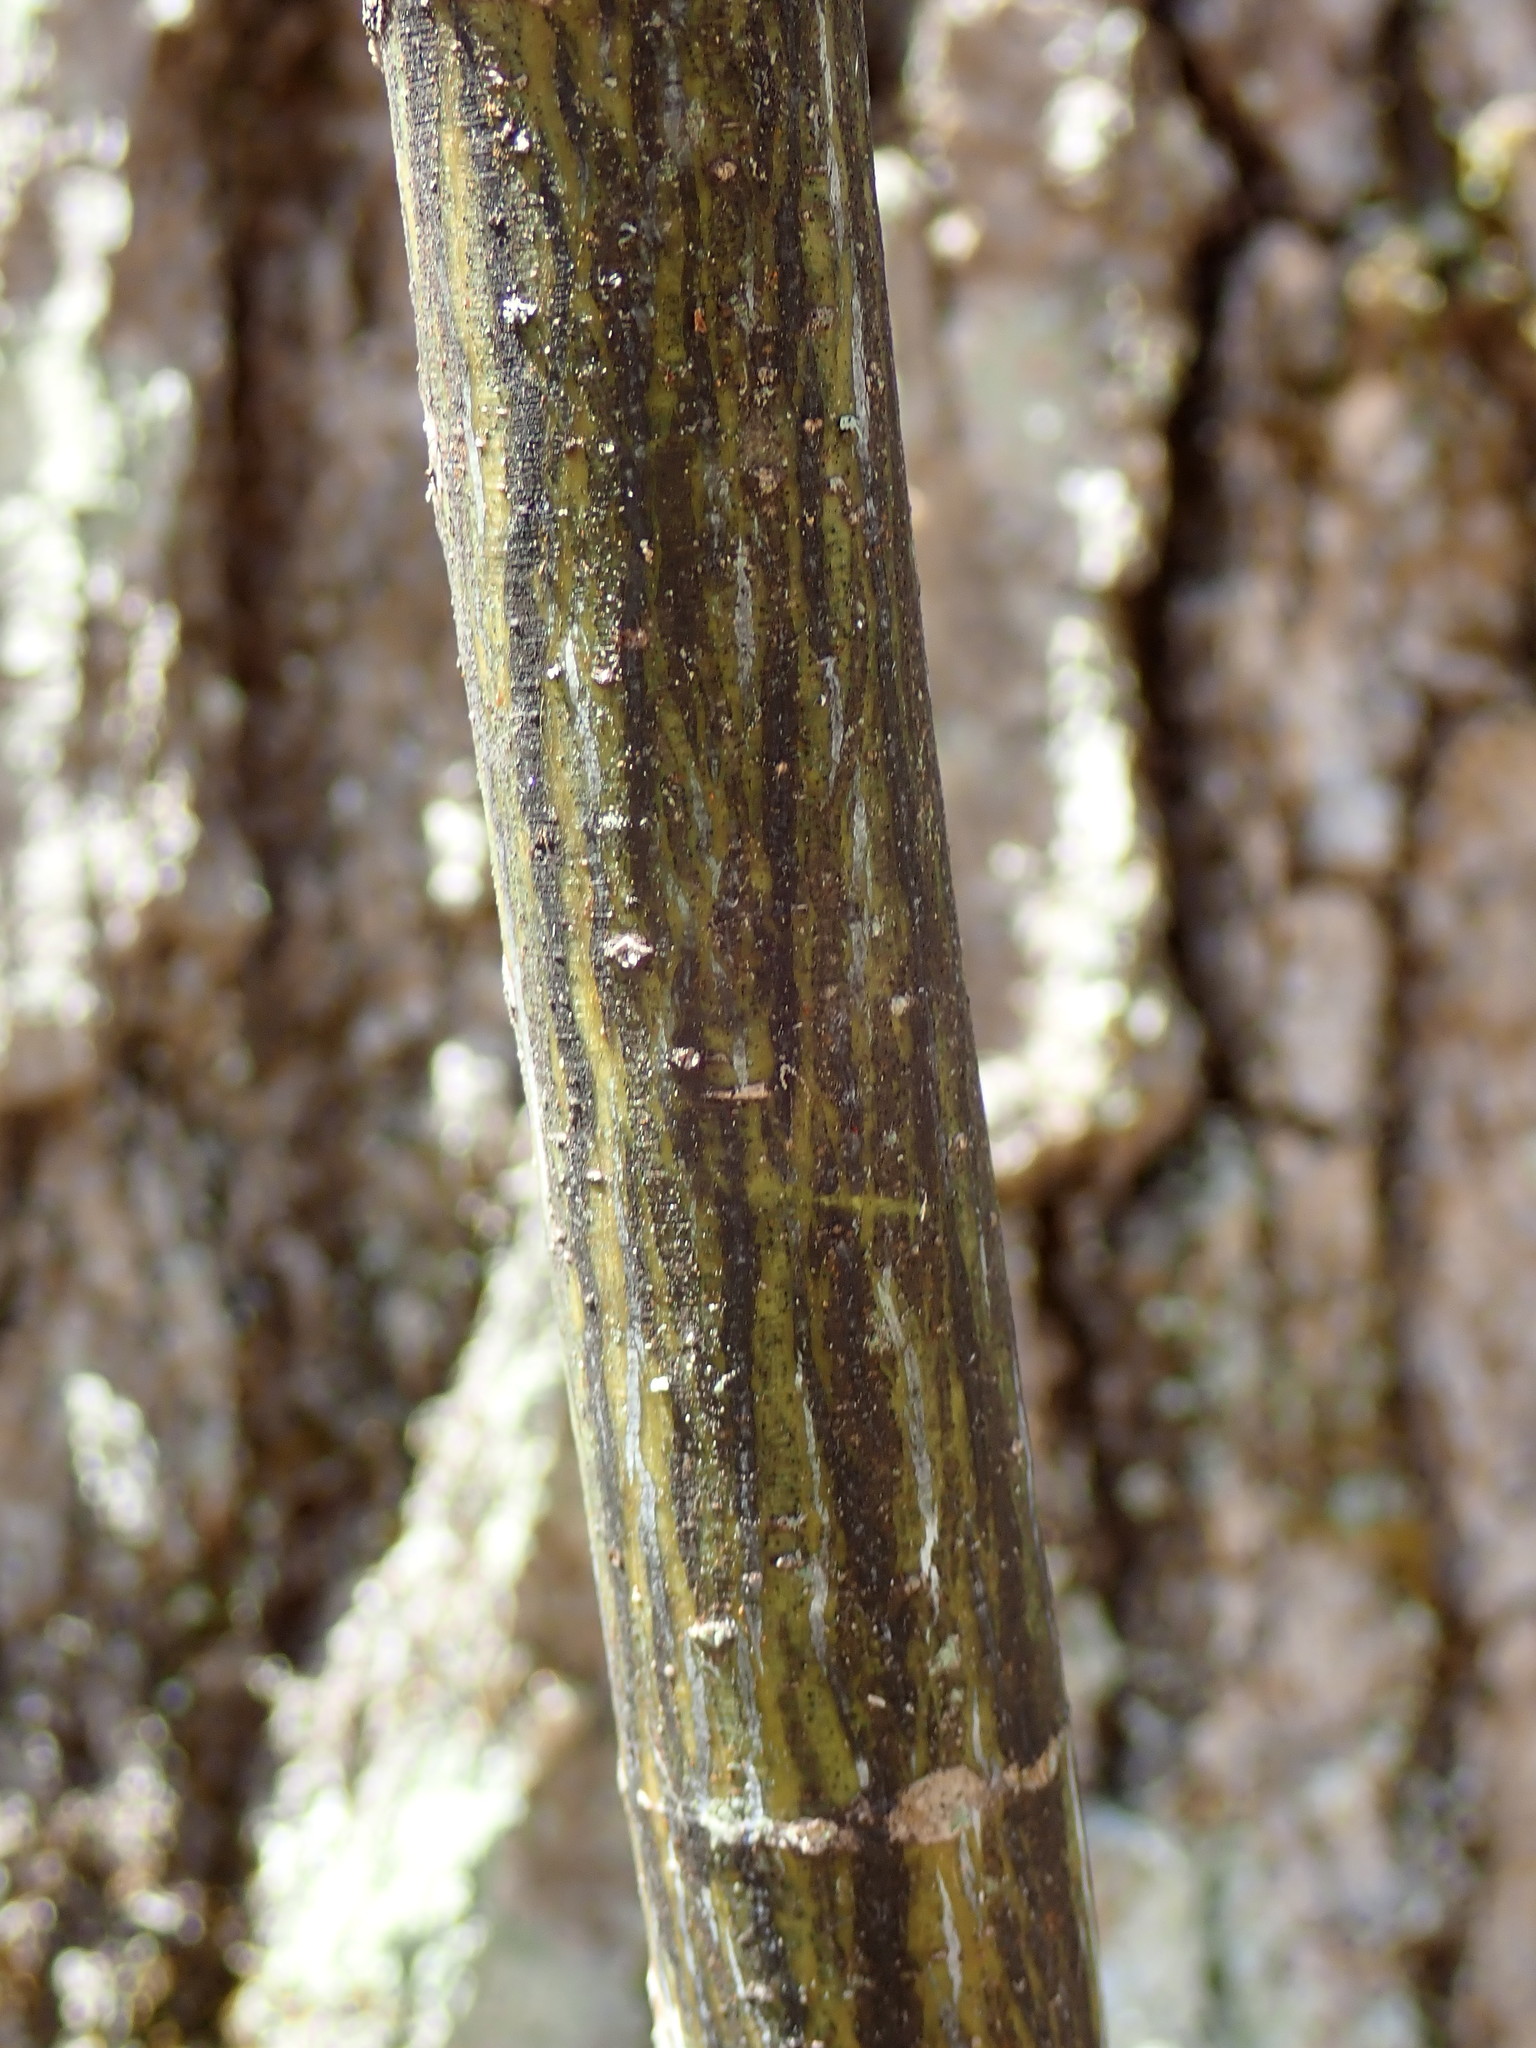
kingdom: Plantae
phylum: Tracheophyta
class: Magnoliopsida
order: Sapindales
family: Sapindaceae
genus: Acer
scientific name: Acer pensylvanicum
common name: Moosewood
